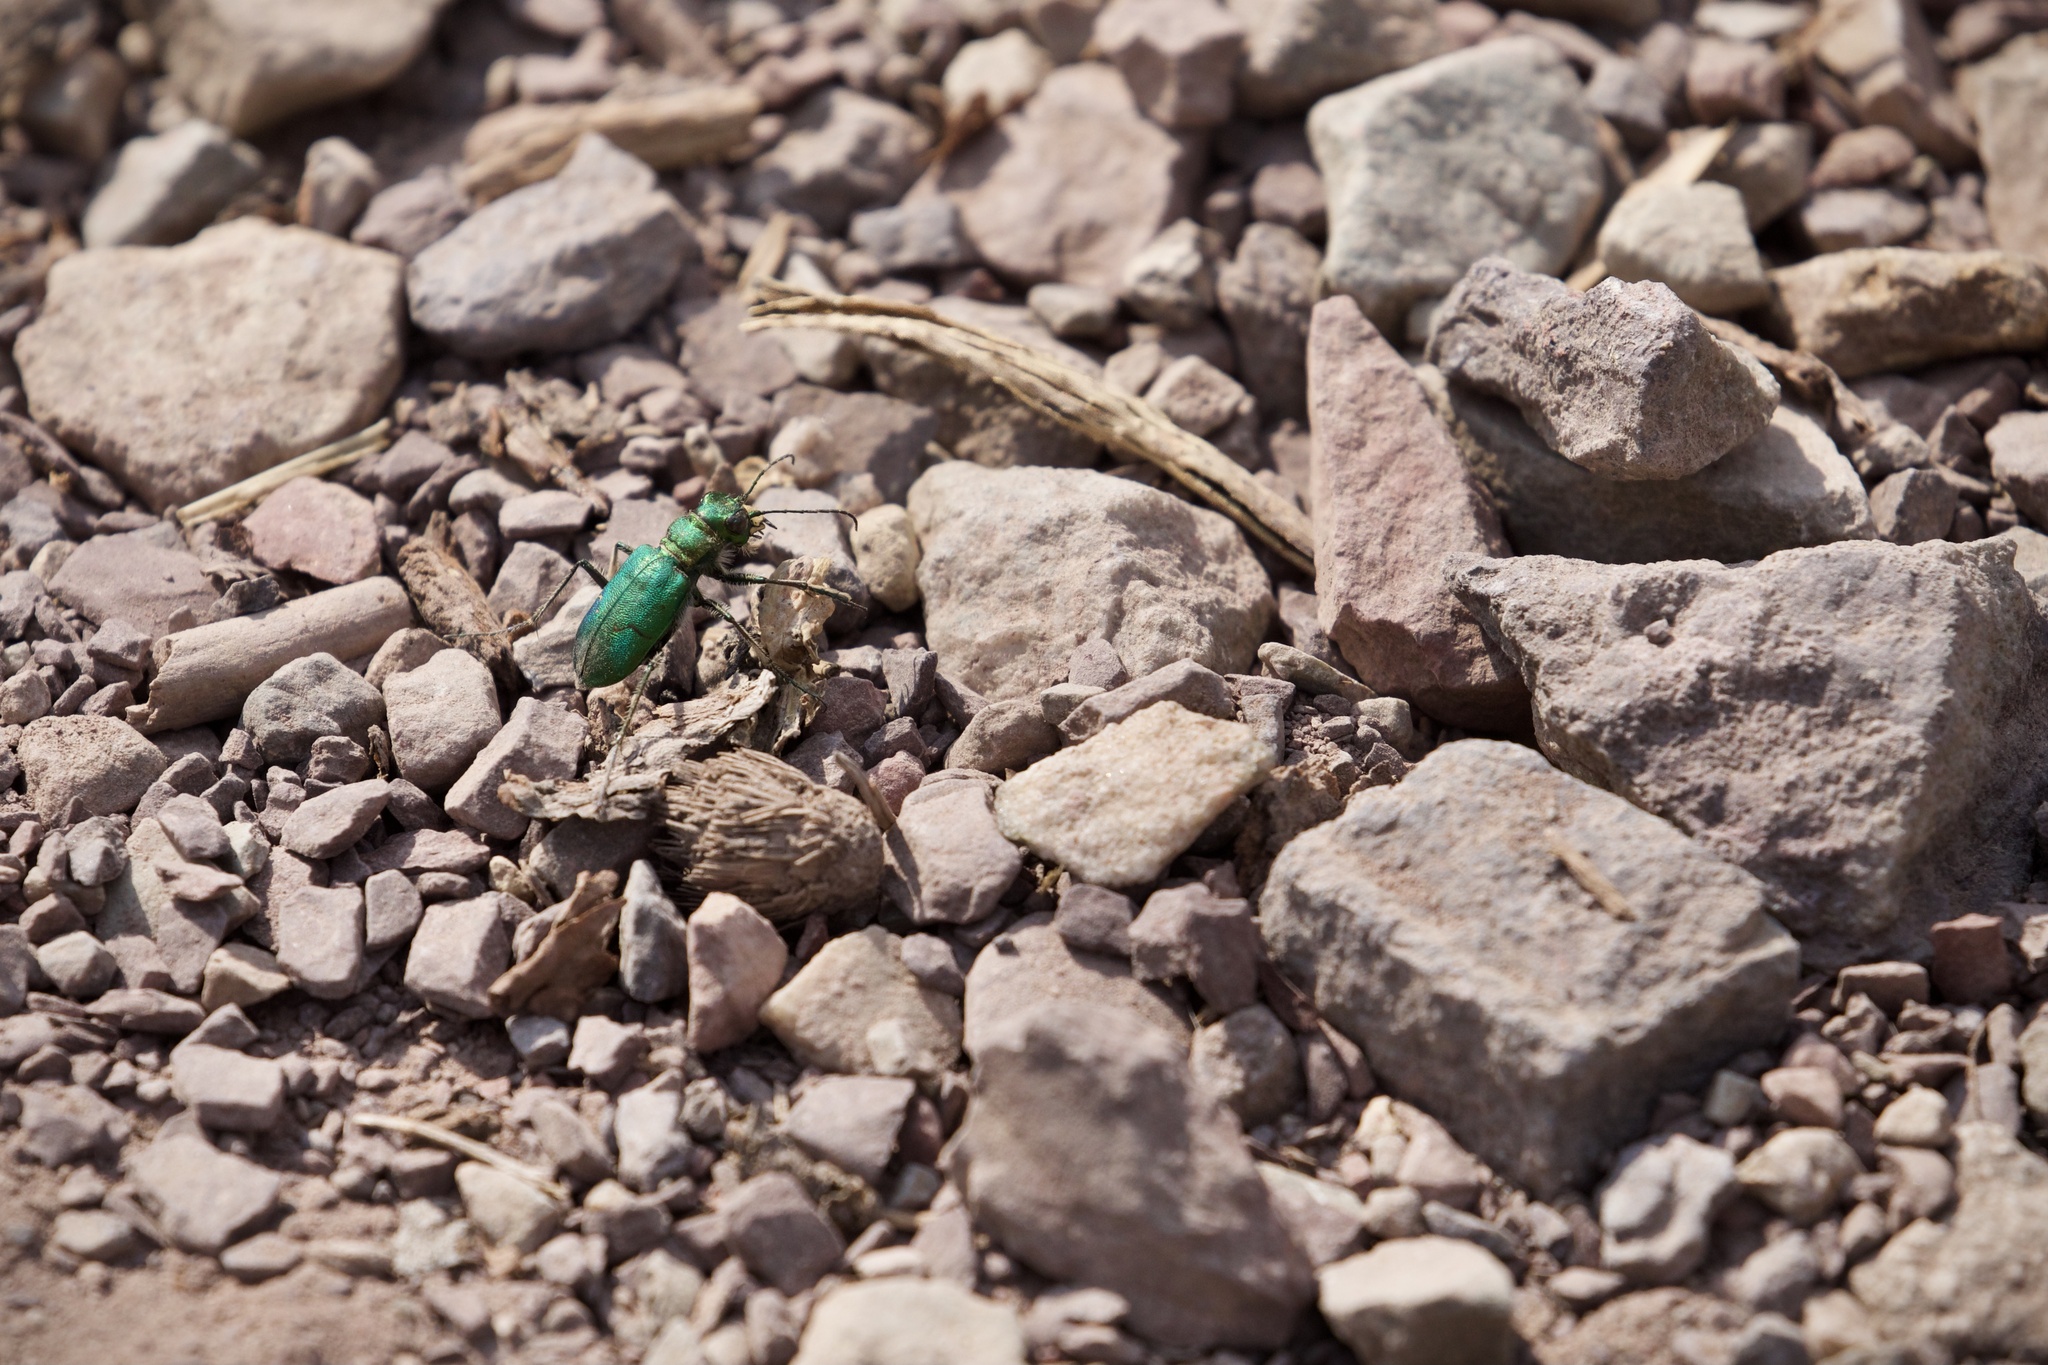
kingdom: Animalia
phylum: Arthropoda
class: Insecta
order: Coleoptera
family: Carabidae
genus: Cicindela
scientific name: Cicindela longilabris
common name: Boreal long-lipped tiger beetle
